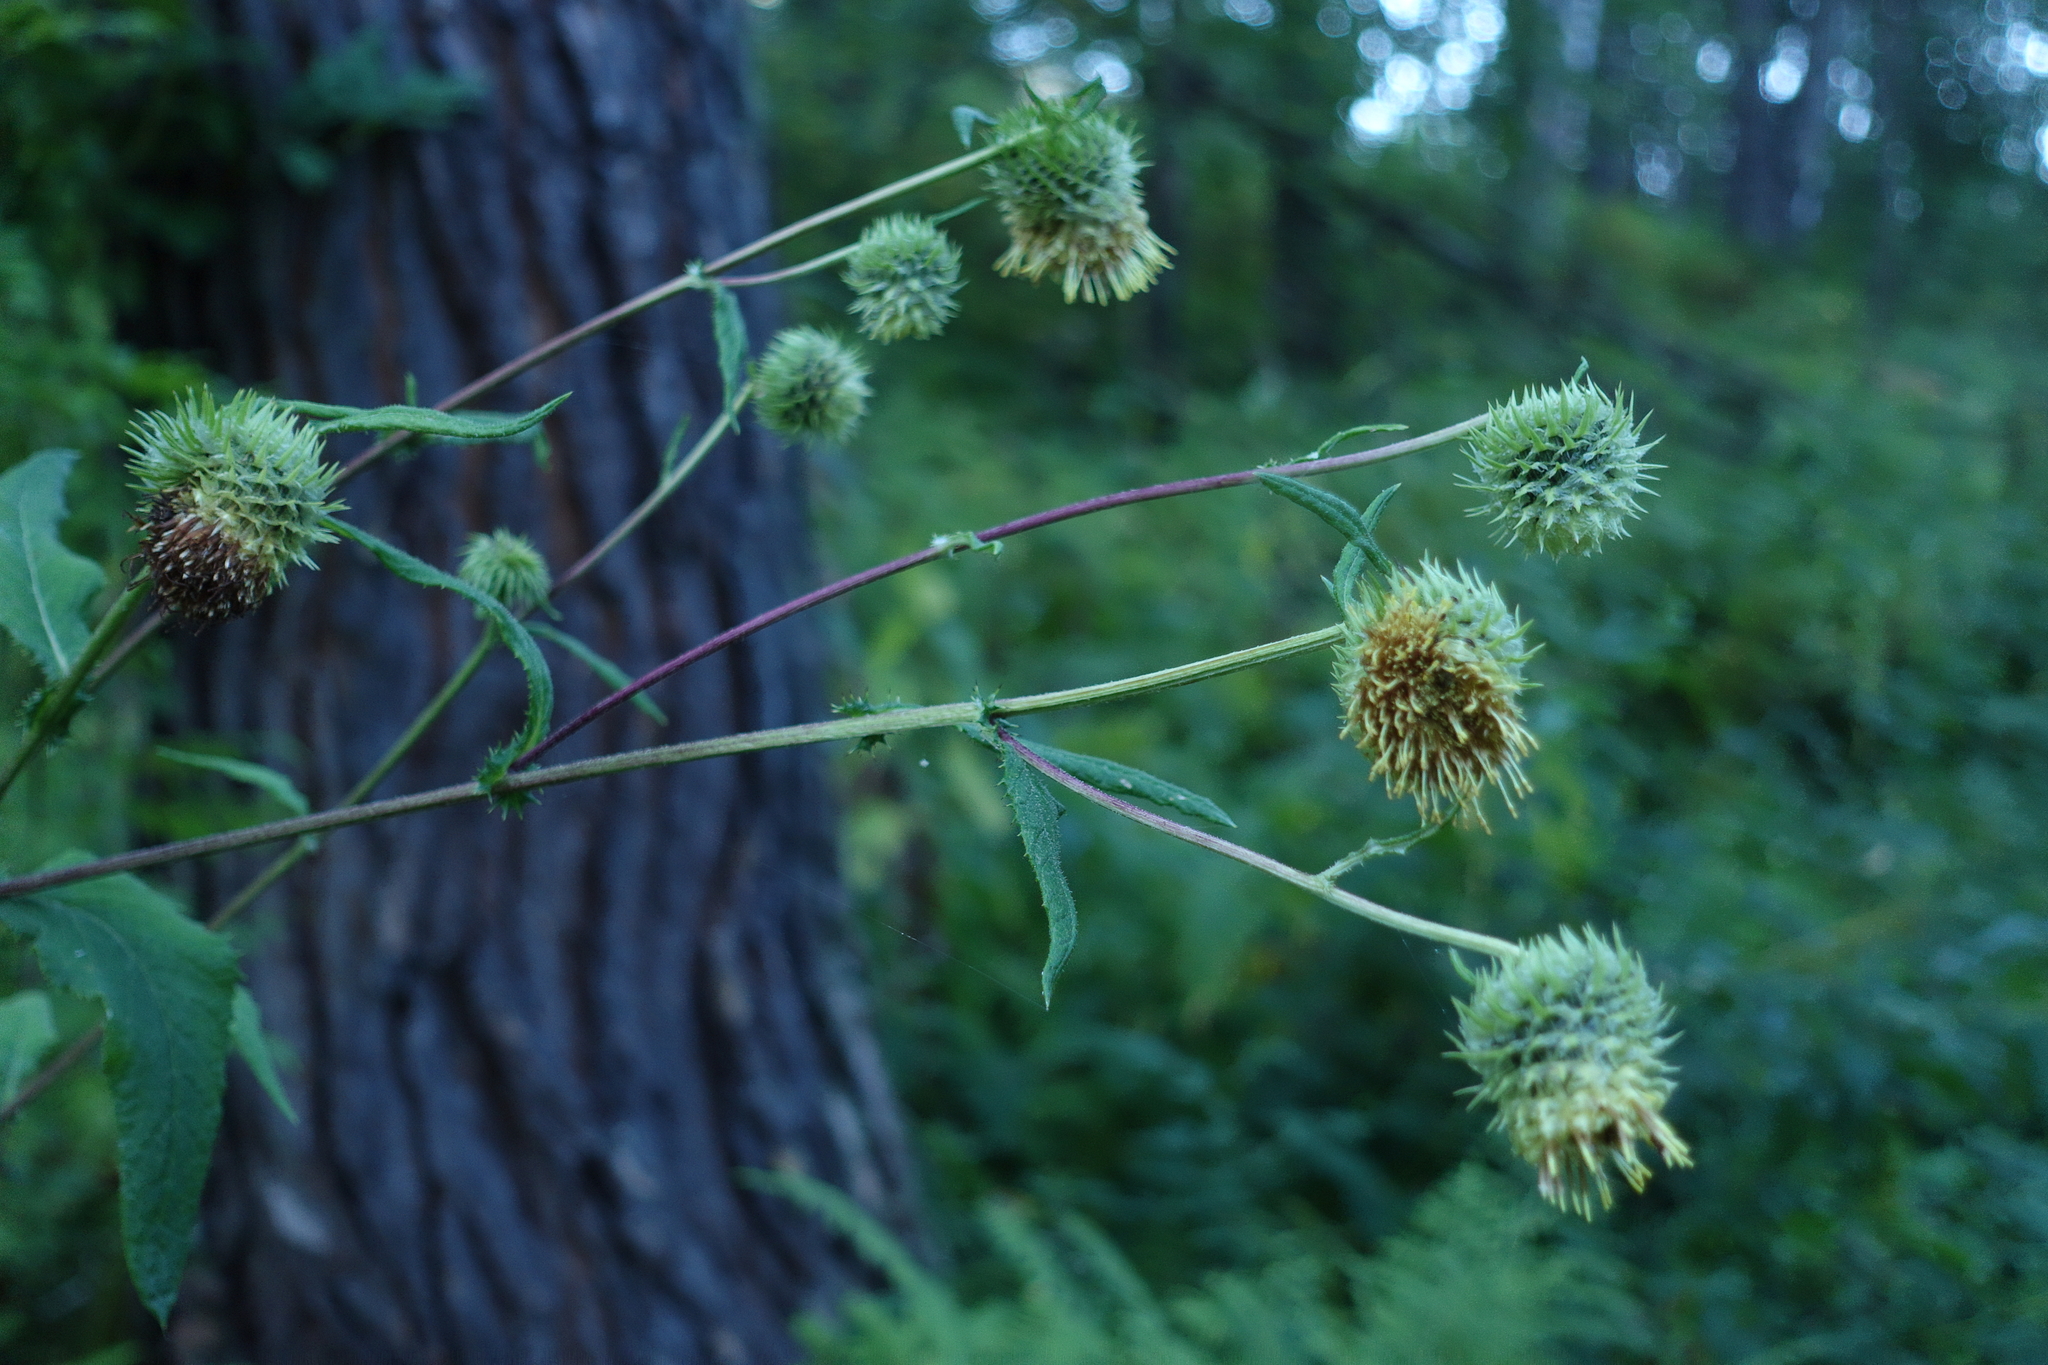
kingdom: Plantae
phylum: Tracheophyta
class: Magnoliopsida
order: Asterales
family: Asteraceae
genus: Alfredia
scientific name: Alfredia cernua
